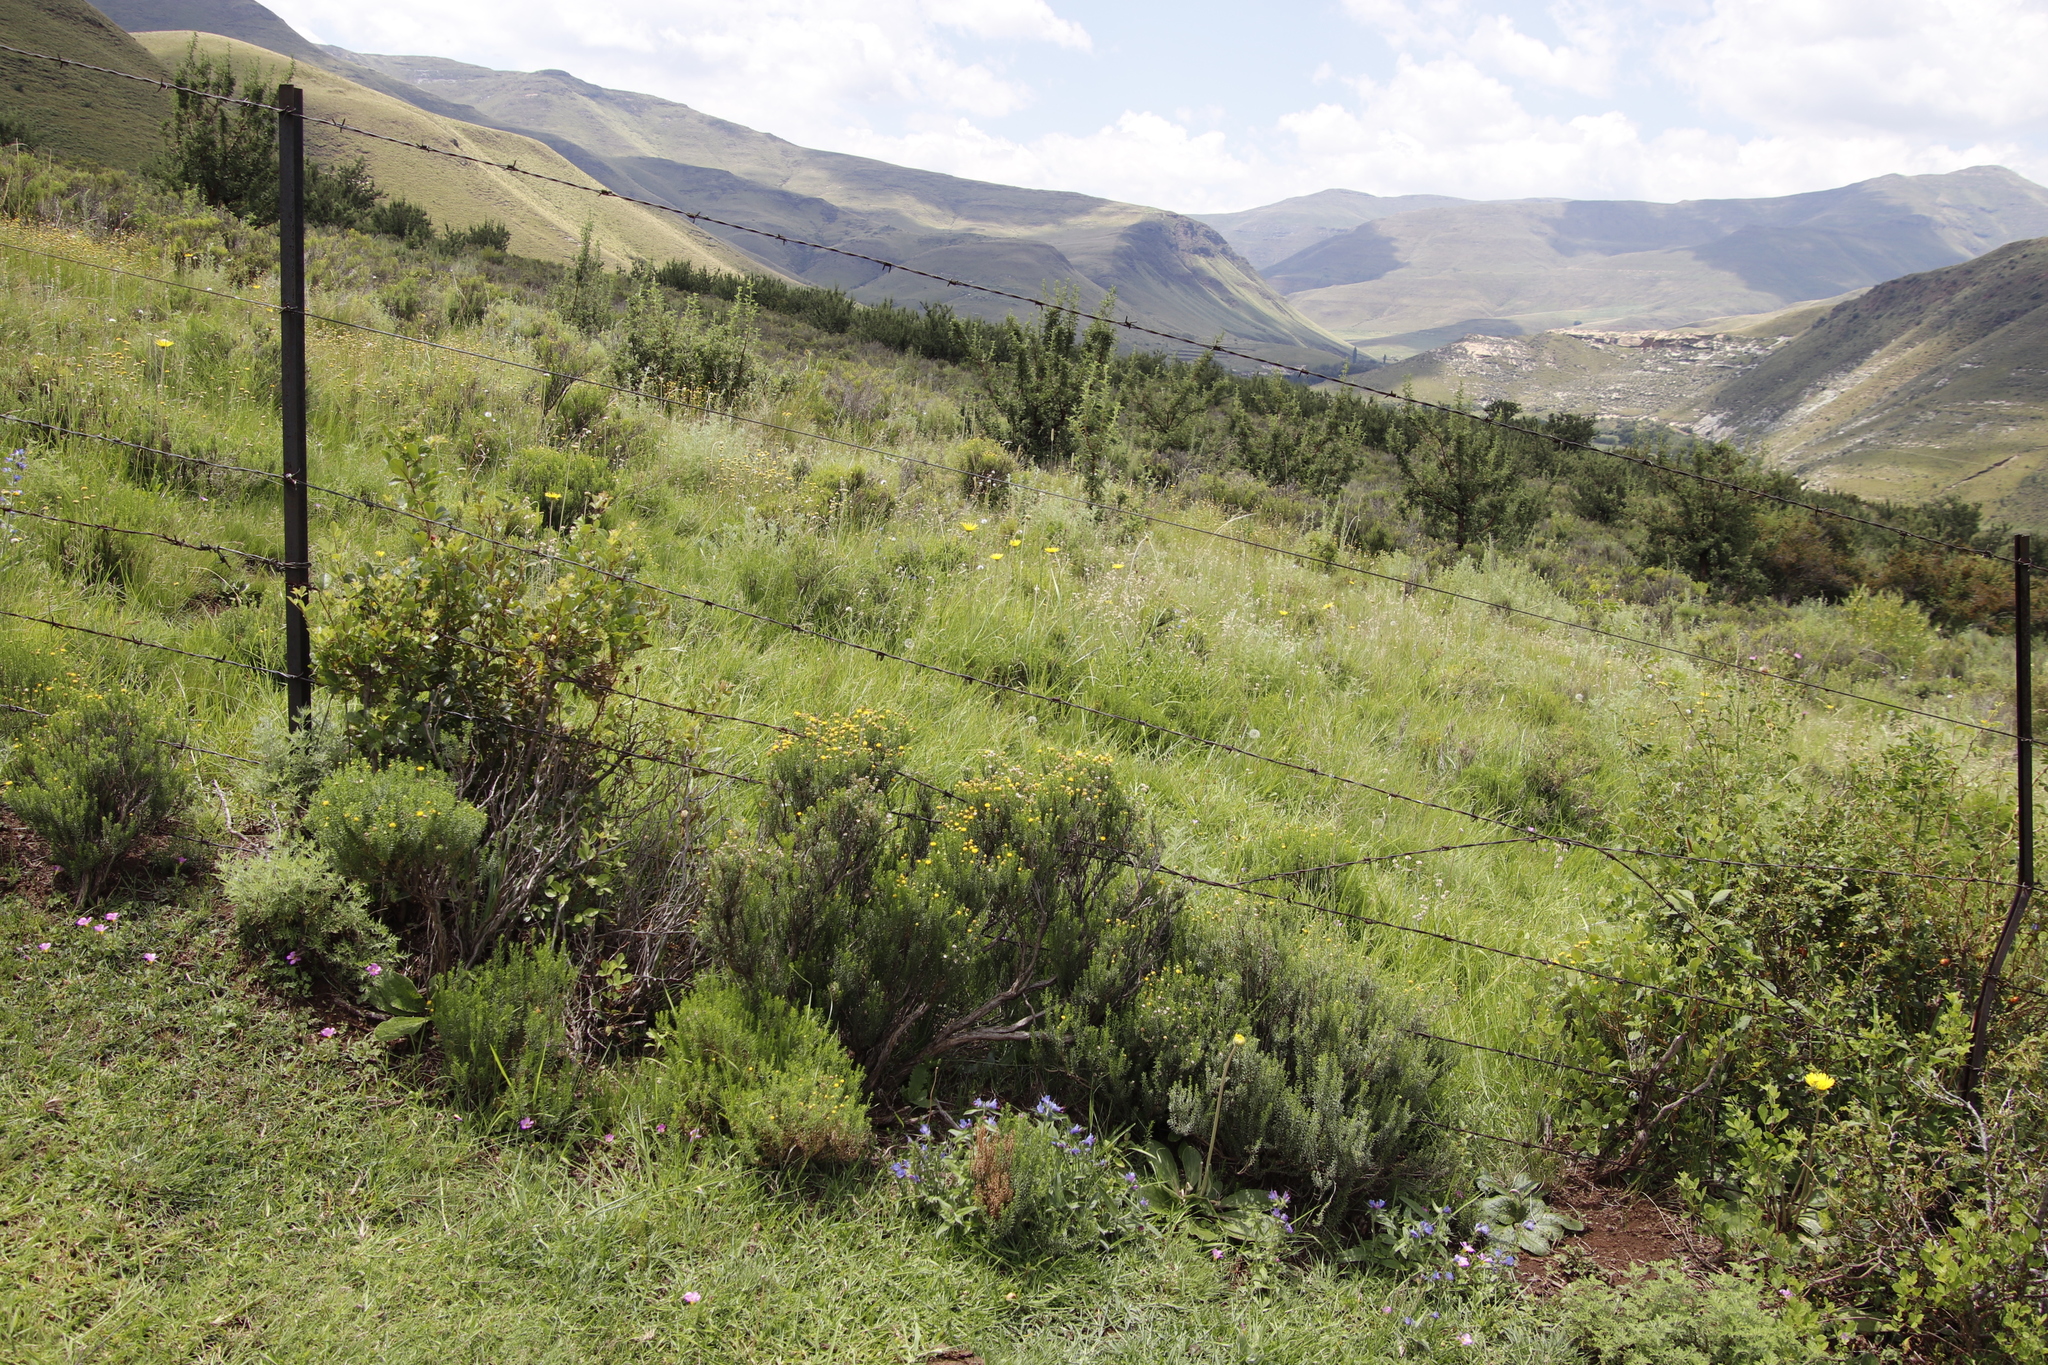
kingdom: Plantae
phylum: Tracheophyta
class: Magnoliopsida
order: Asterales
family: Asteraceae
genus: Chrysocoma
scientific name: Chrysocoma ciliata
